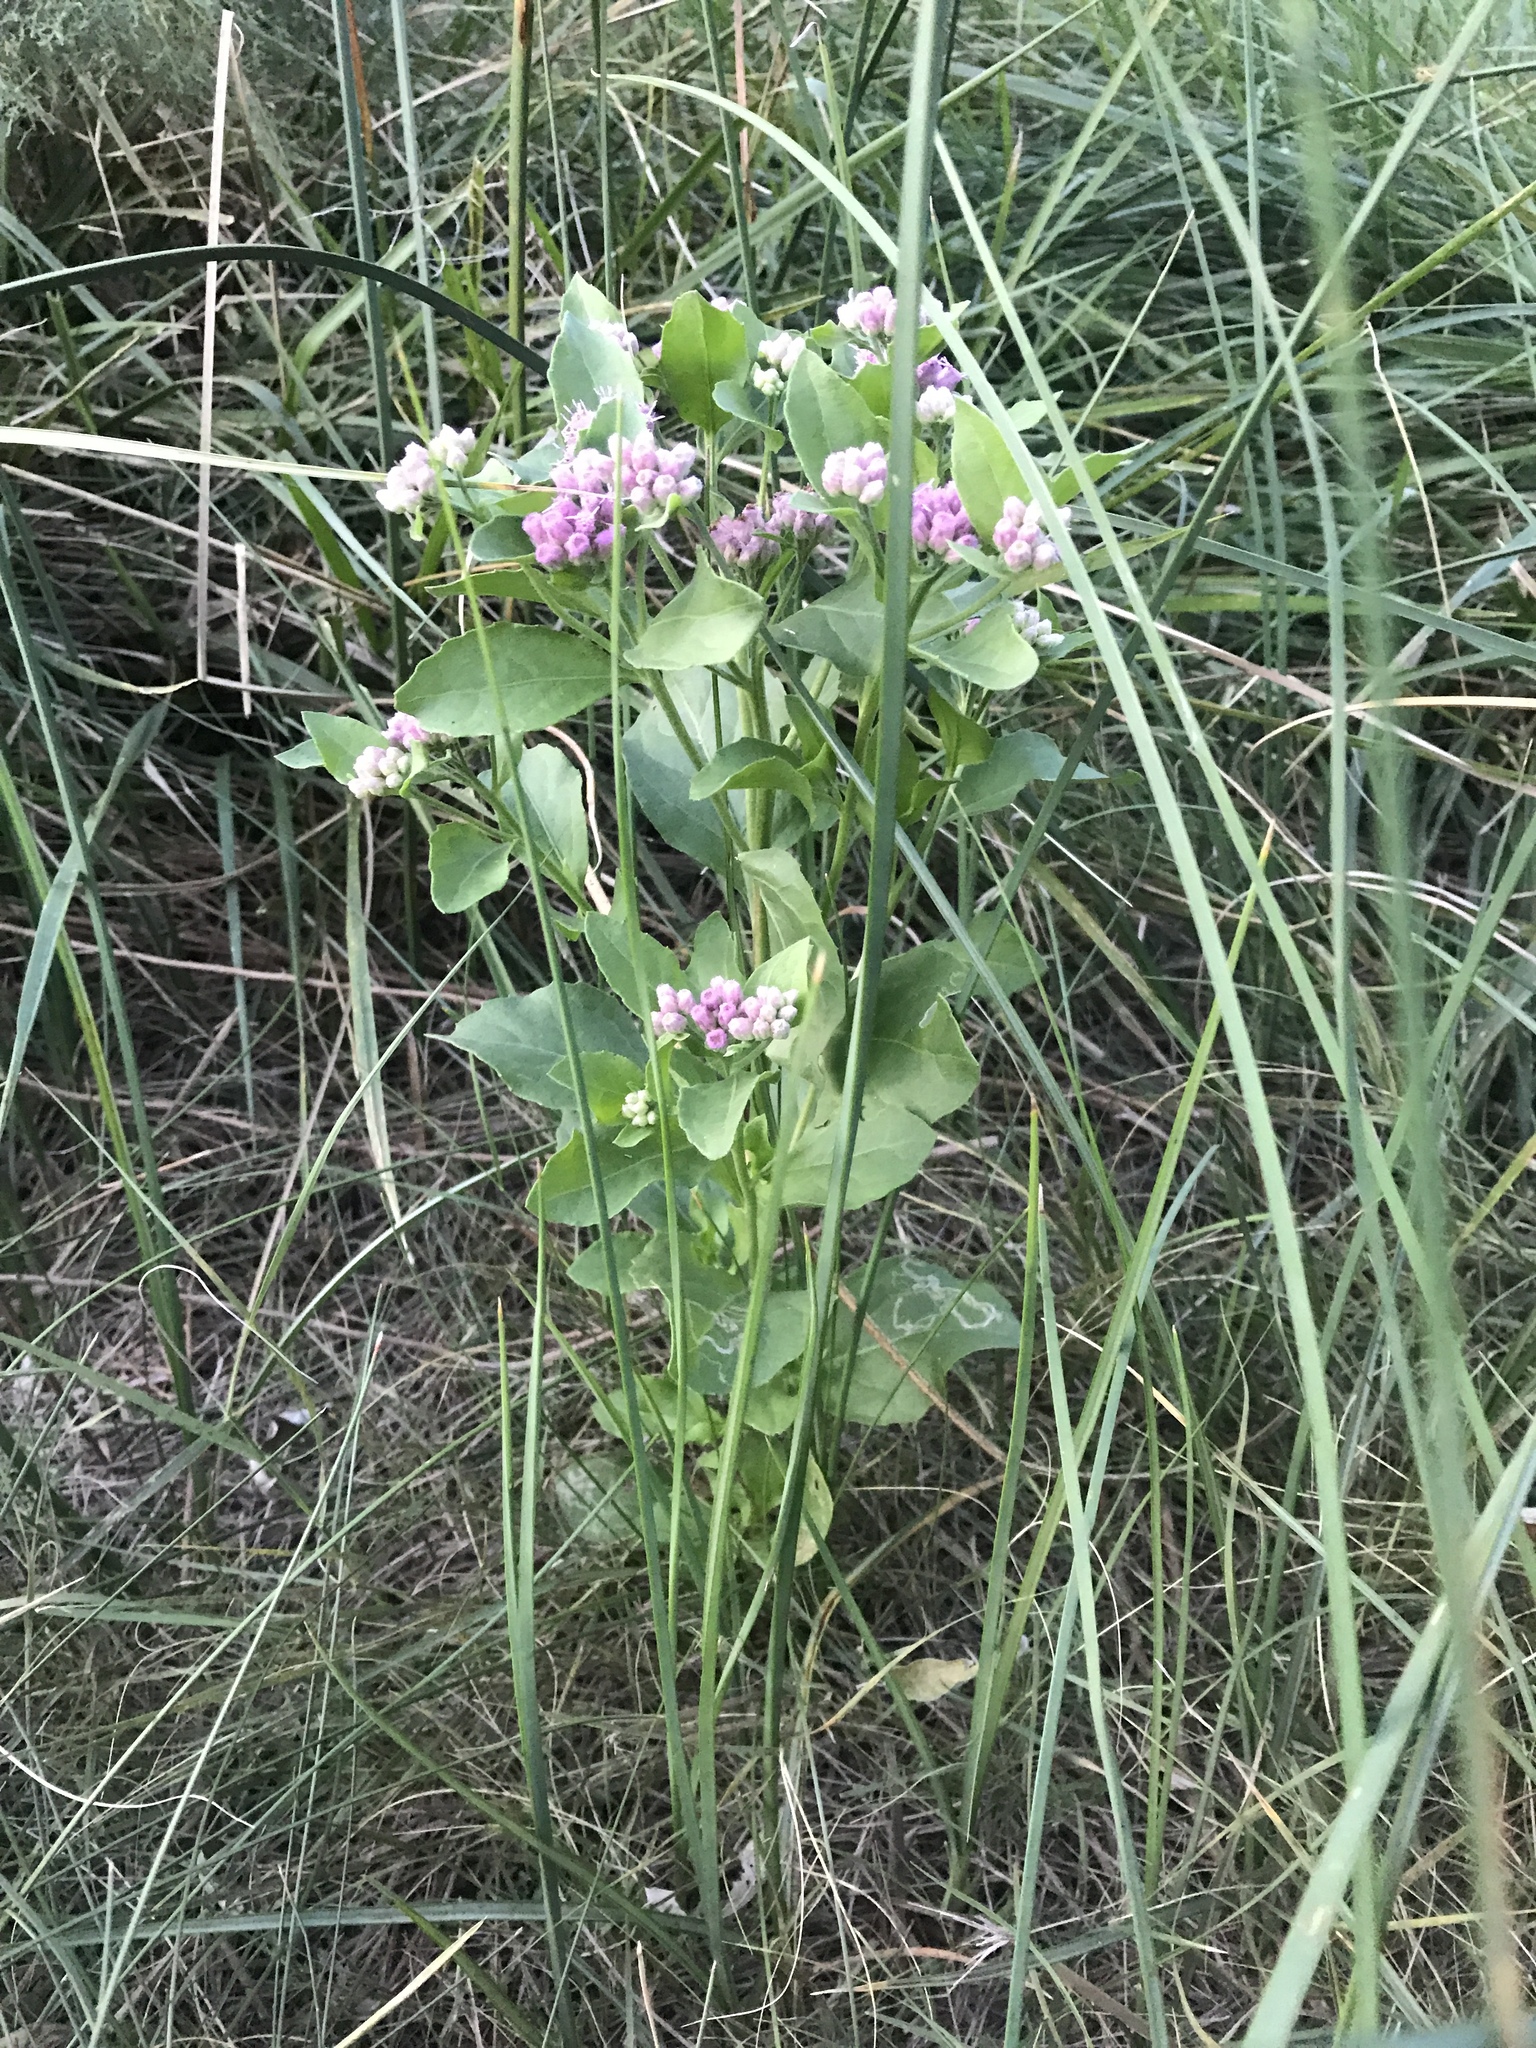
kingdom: Plantae
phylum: Tracheophyta
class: Magnoliopsida
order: Asterales
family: Asteraceae
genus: Pluchea
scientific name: Pluchea odorata
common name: Saltmarsh fleabane
